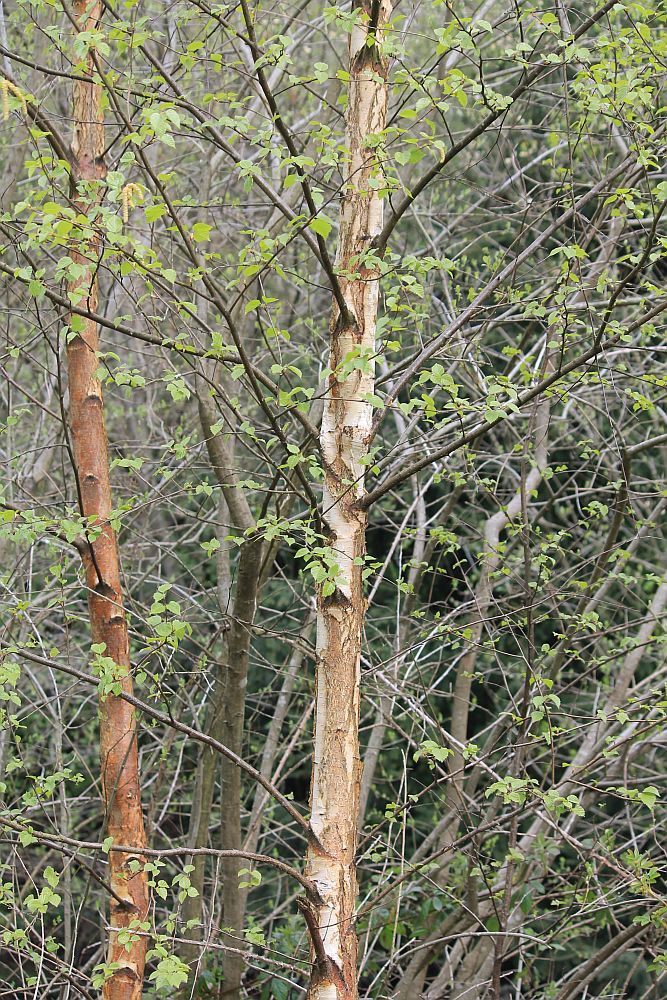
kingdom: Plantae
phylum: Tracheophyta
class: Magnoliopsida
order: Fagales
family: Betulaceae
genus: Betula
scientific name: Betula pendula
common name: Silver birch
